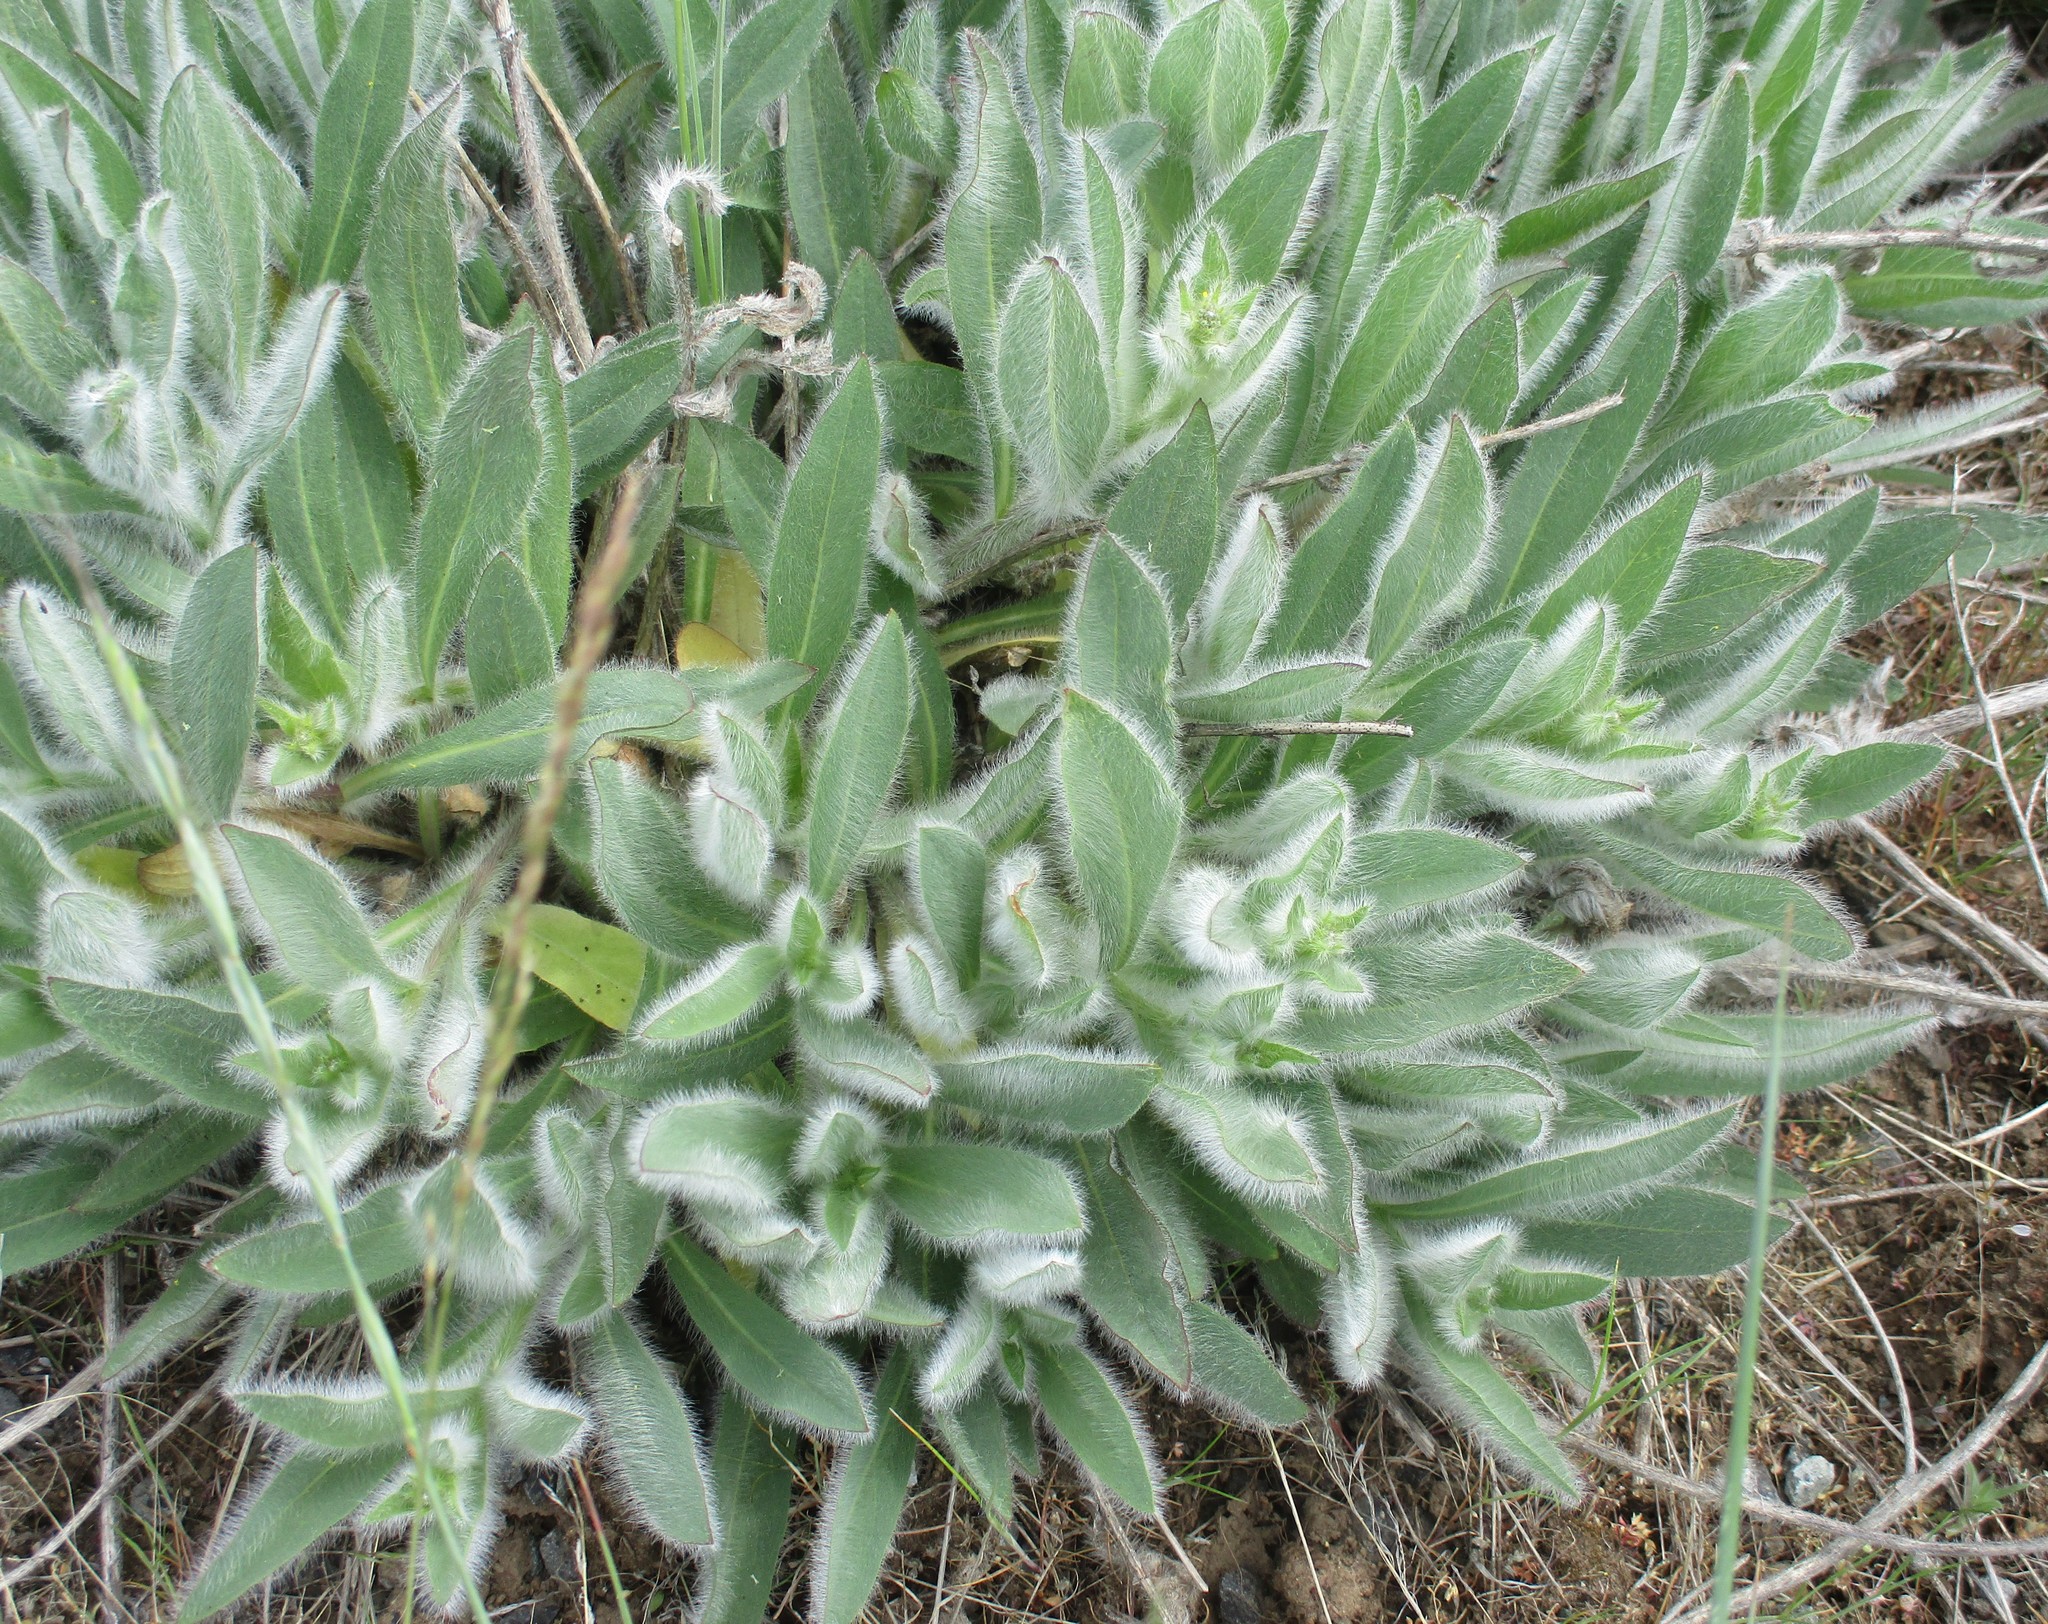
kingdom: Plantae
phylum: Tracheophyta
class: Magnoliopsida
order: Asterales
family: Asteraceae
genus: Hieracium
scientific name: Hieracium scouleri
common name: Hound's-tongue hawkweed
